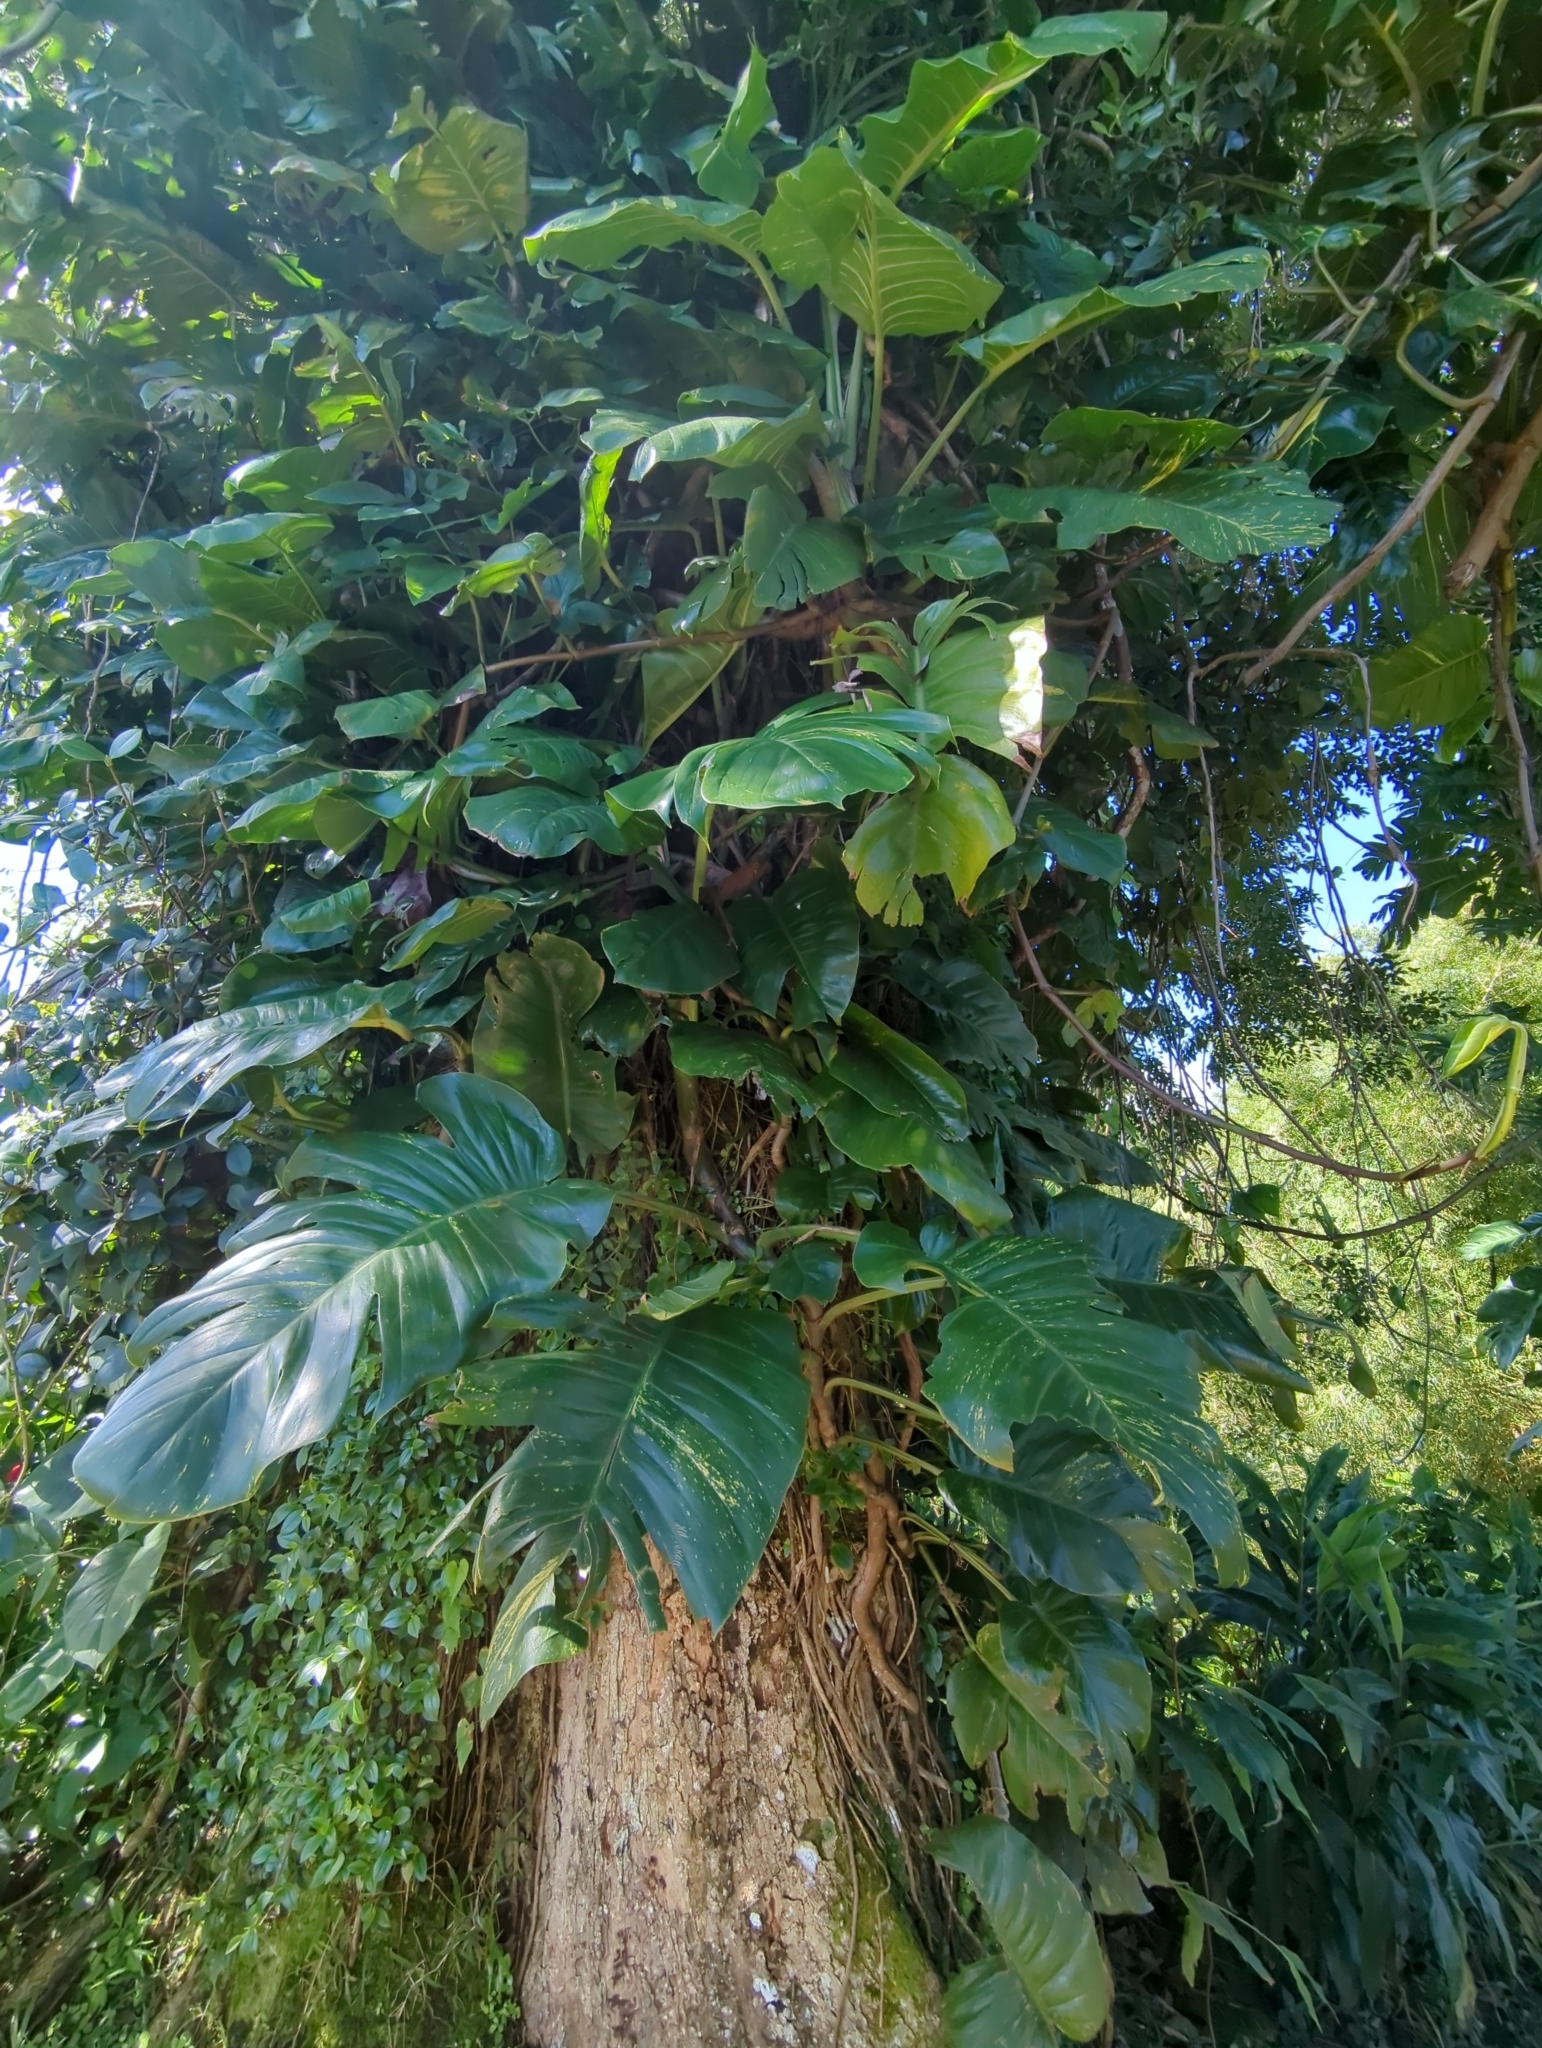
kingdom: Plantae
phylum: Tracheophyta
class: Liliopsida
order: Alismatales
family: Araceae
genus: Epipremnum
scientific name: Epipremnum aureum
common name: Golden hunter's-robe
